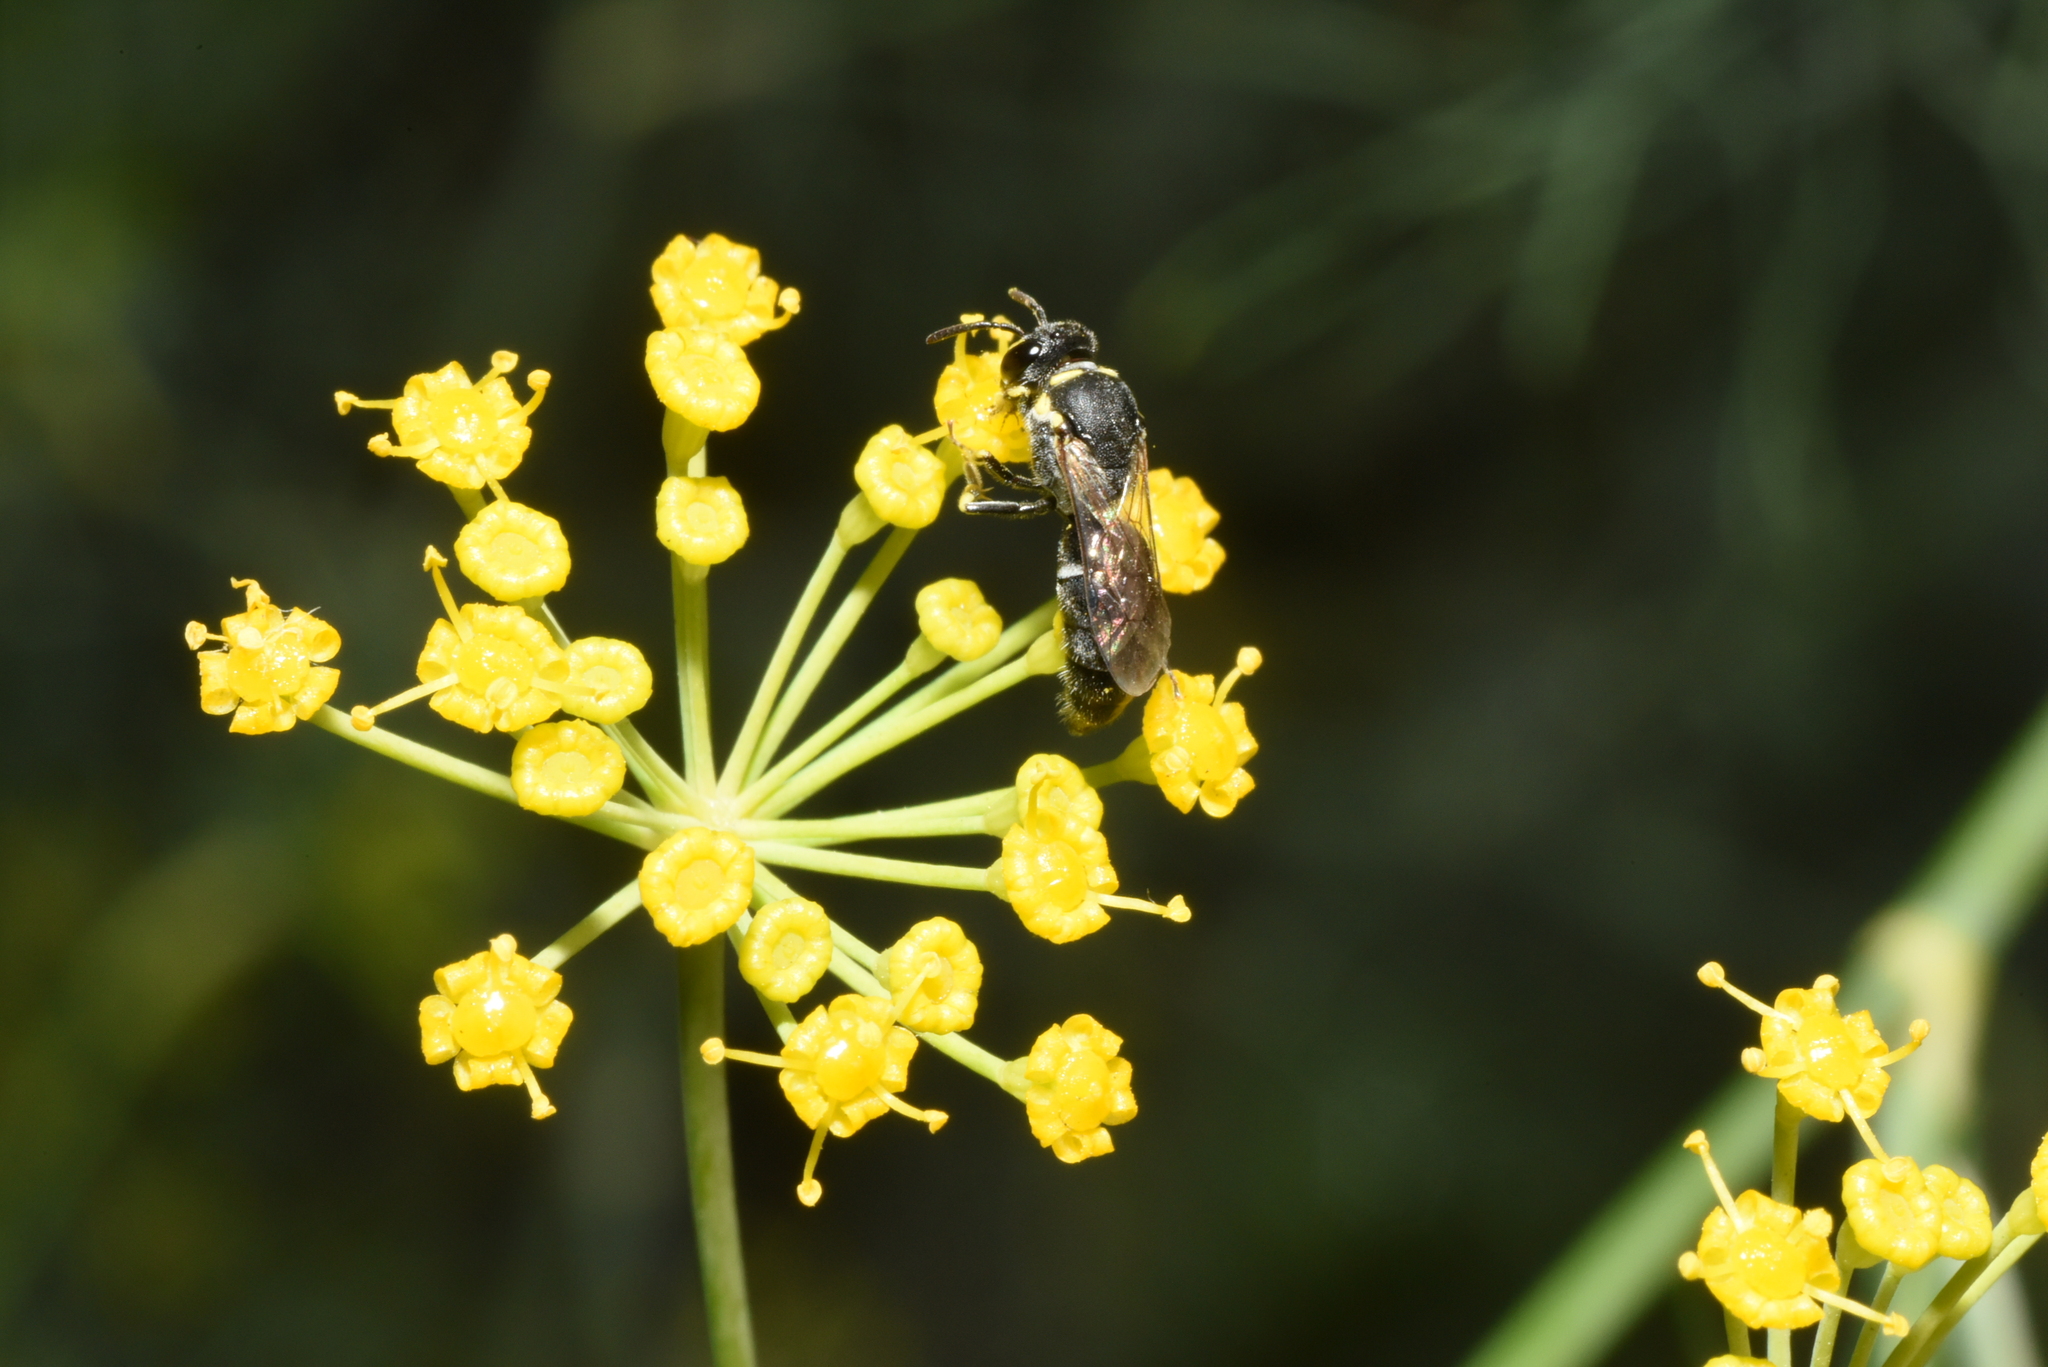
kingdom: Animalia
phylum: Arthropoda
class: Insecta
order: Hymenoptera
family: Colletidae
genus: Hylaeus
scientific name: Hylaeus mediolucens
